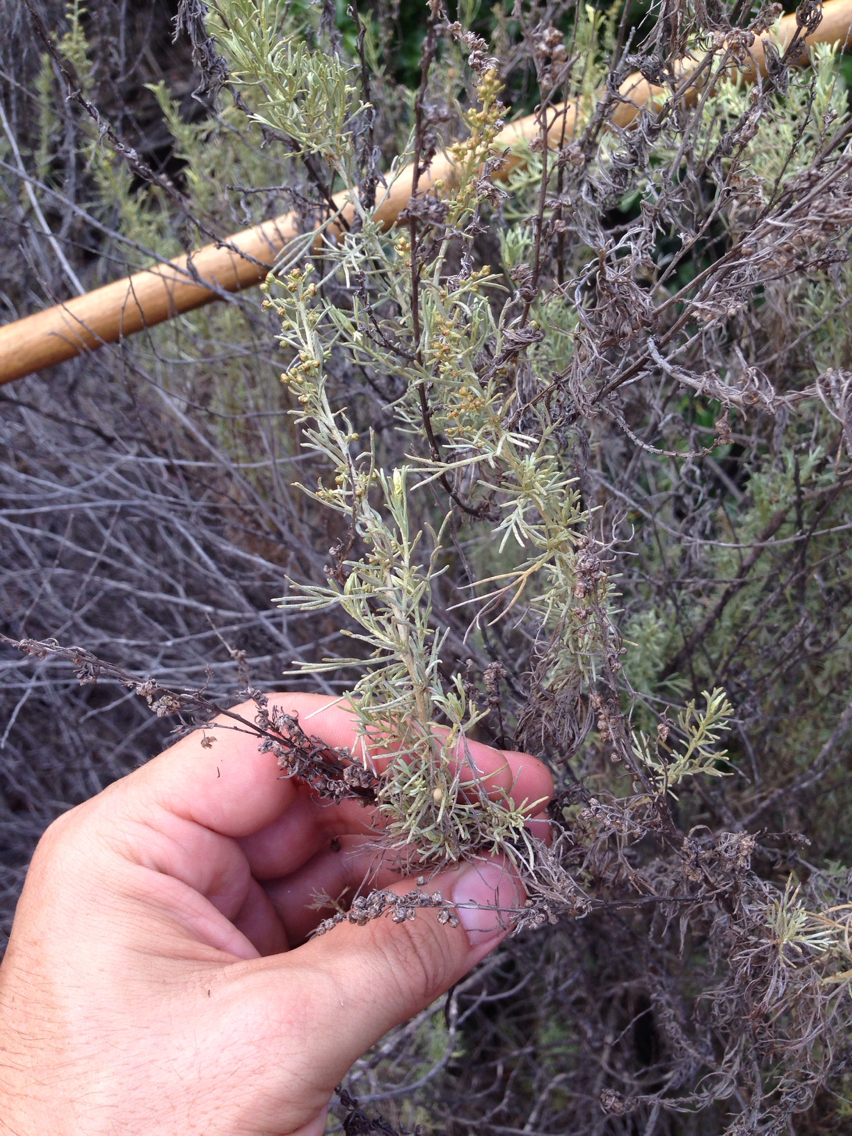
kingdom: Plantae
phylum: Tracheophyta
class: Magnoliopsida
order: Asterales
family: Asteraceae
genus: Artemisia
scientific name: Artemisia californica
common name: California sagebrush
